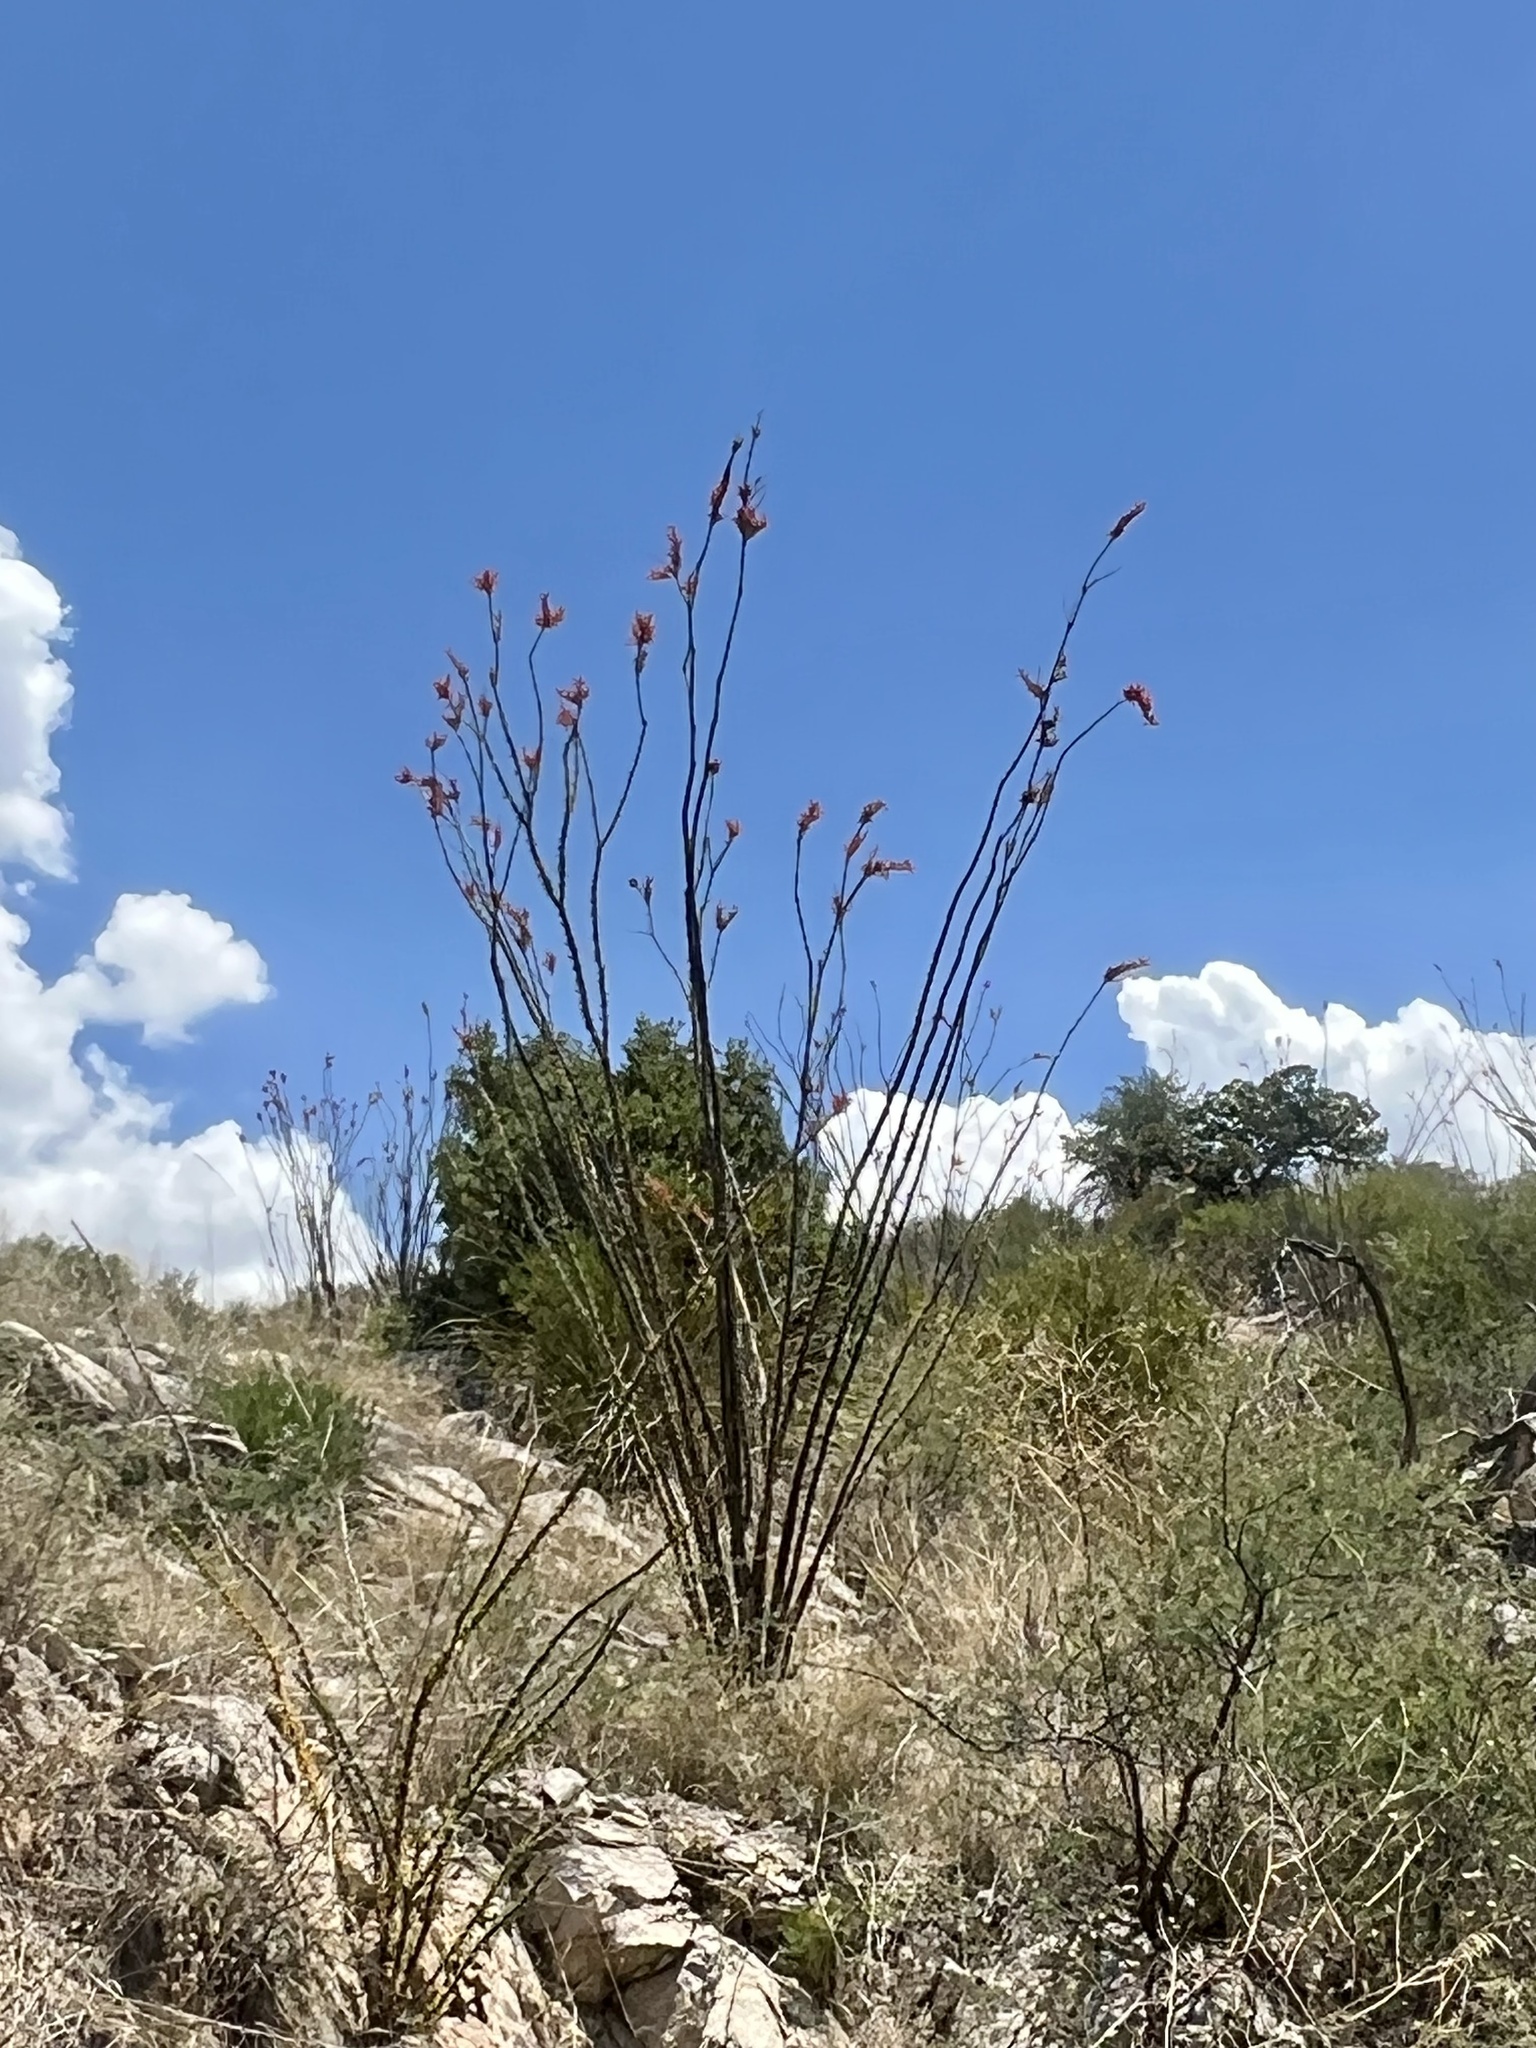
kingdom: Plantae
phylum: Tracheophyta
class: Magnoliopsida
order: Ericales
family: Fouquieriaceae
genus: Fouquieria
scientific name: Fouquieria splendens
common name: Vine-cactus
